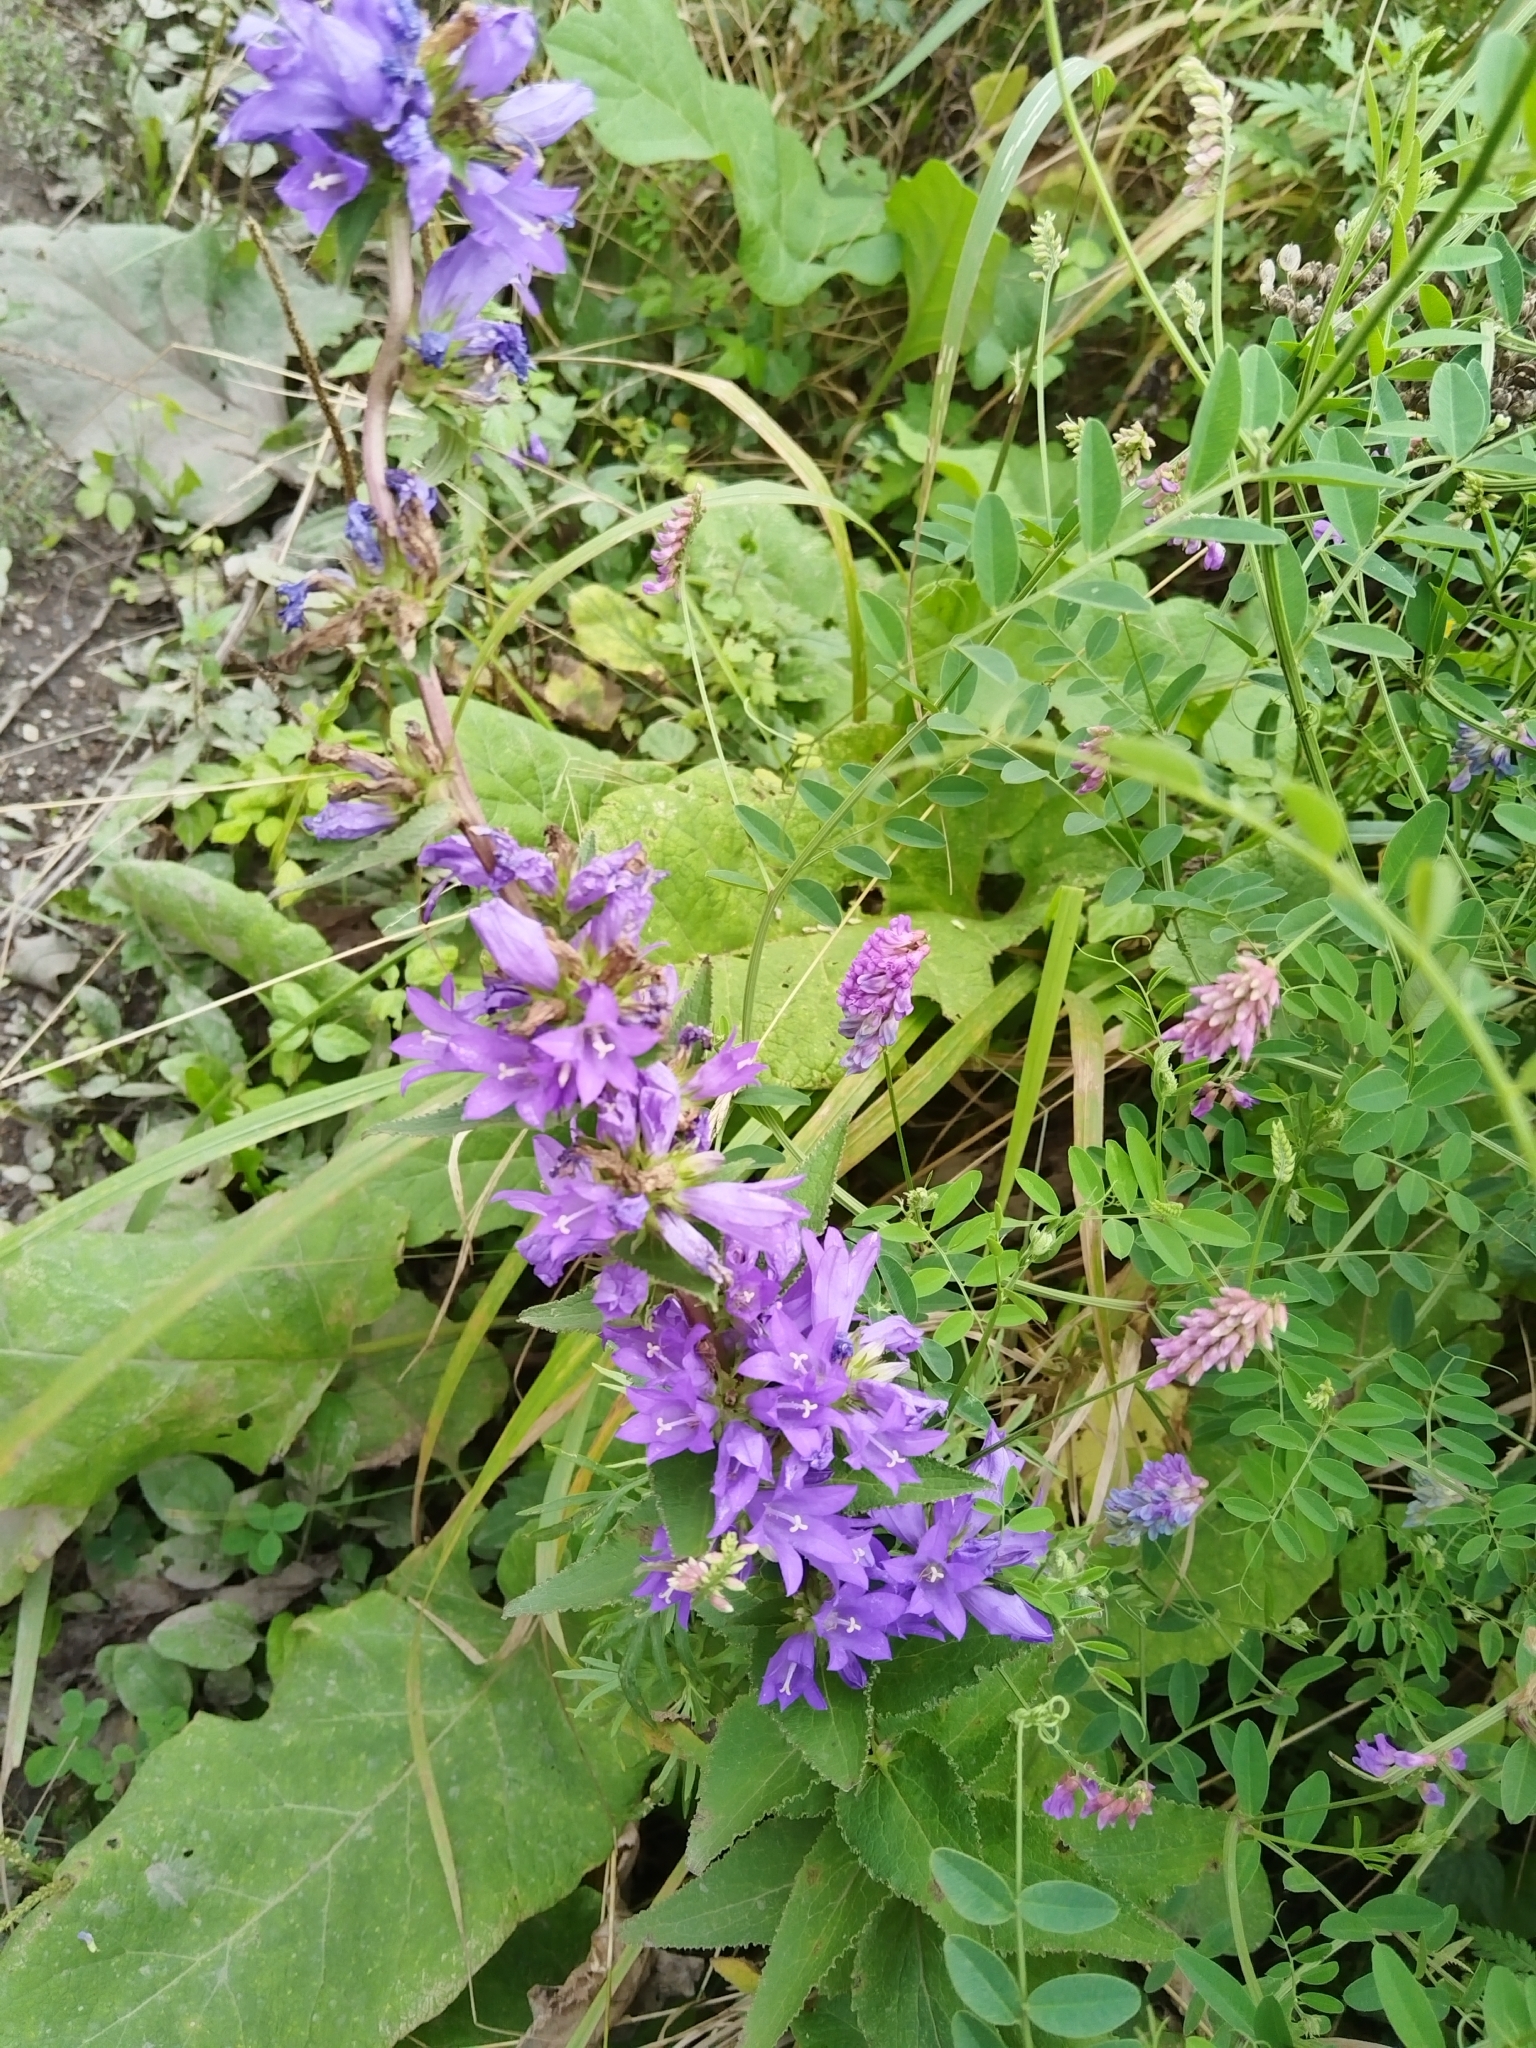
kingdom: Plantae
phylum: Tracheophyta
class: Magnoliopsida
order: Asterales
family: Campanulaceae
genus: Campanula
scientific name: Campanula glomerata
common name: Clustered bellflower
